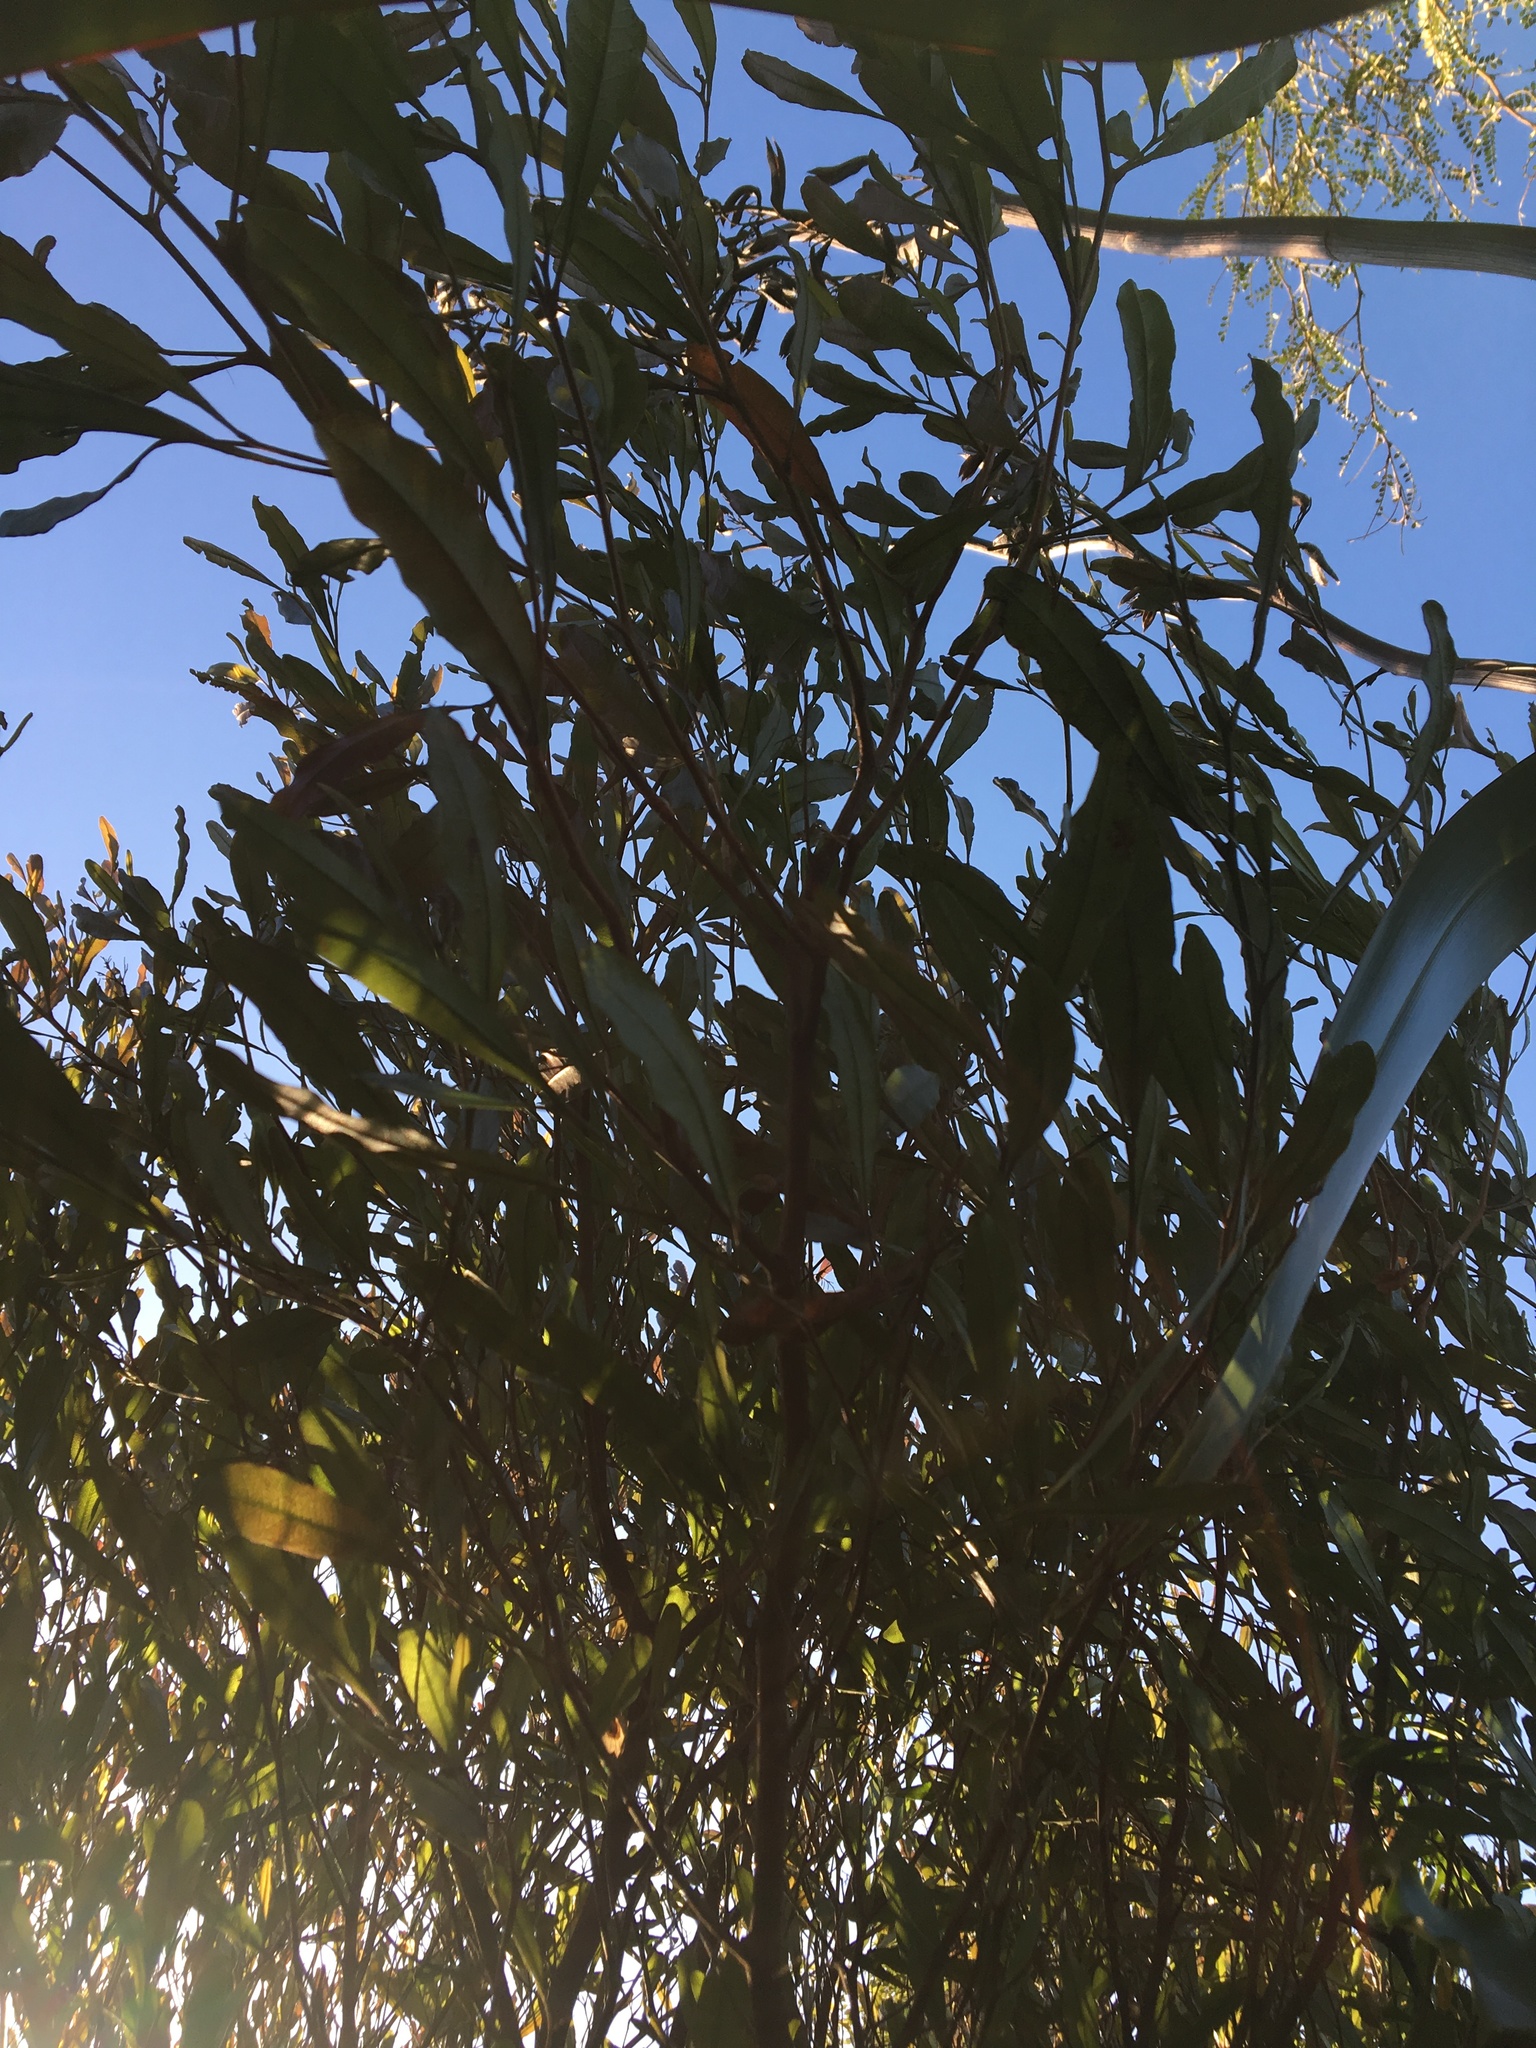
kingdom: Plantae
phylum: Tracheophyta
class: Magnoliopsida
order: Sapindales
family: Sapindaceae
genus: Dodonaea
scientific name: Dodonaea viscosa
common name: Hopbush
